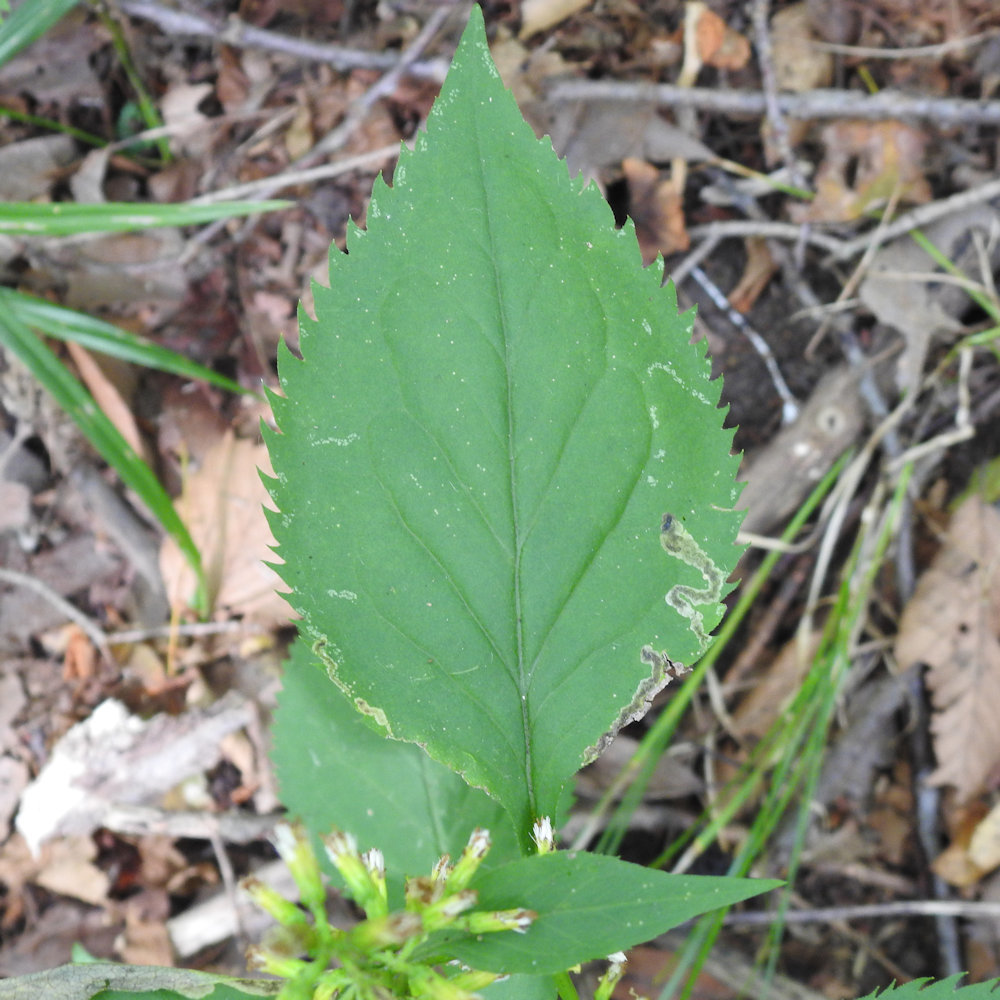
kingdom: Animalia
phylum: Arthropoda
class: Insecta
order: Diptera
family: Agromyzidae
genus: Nemorimyza
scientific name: Nemorimyza posticata
